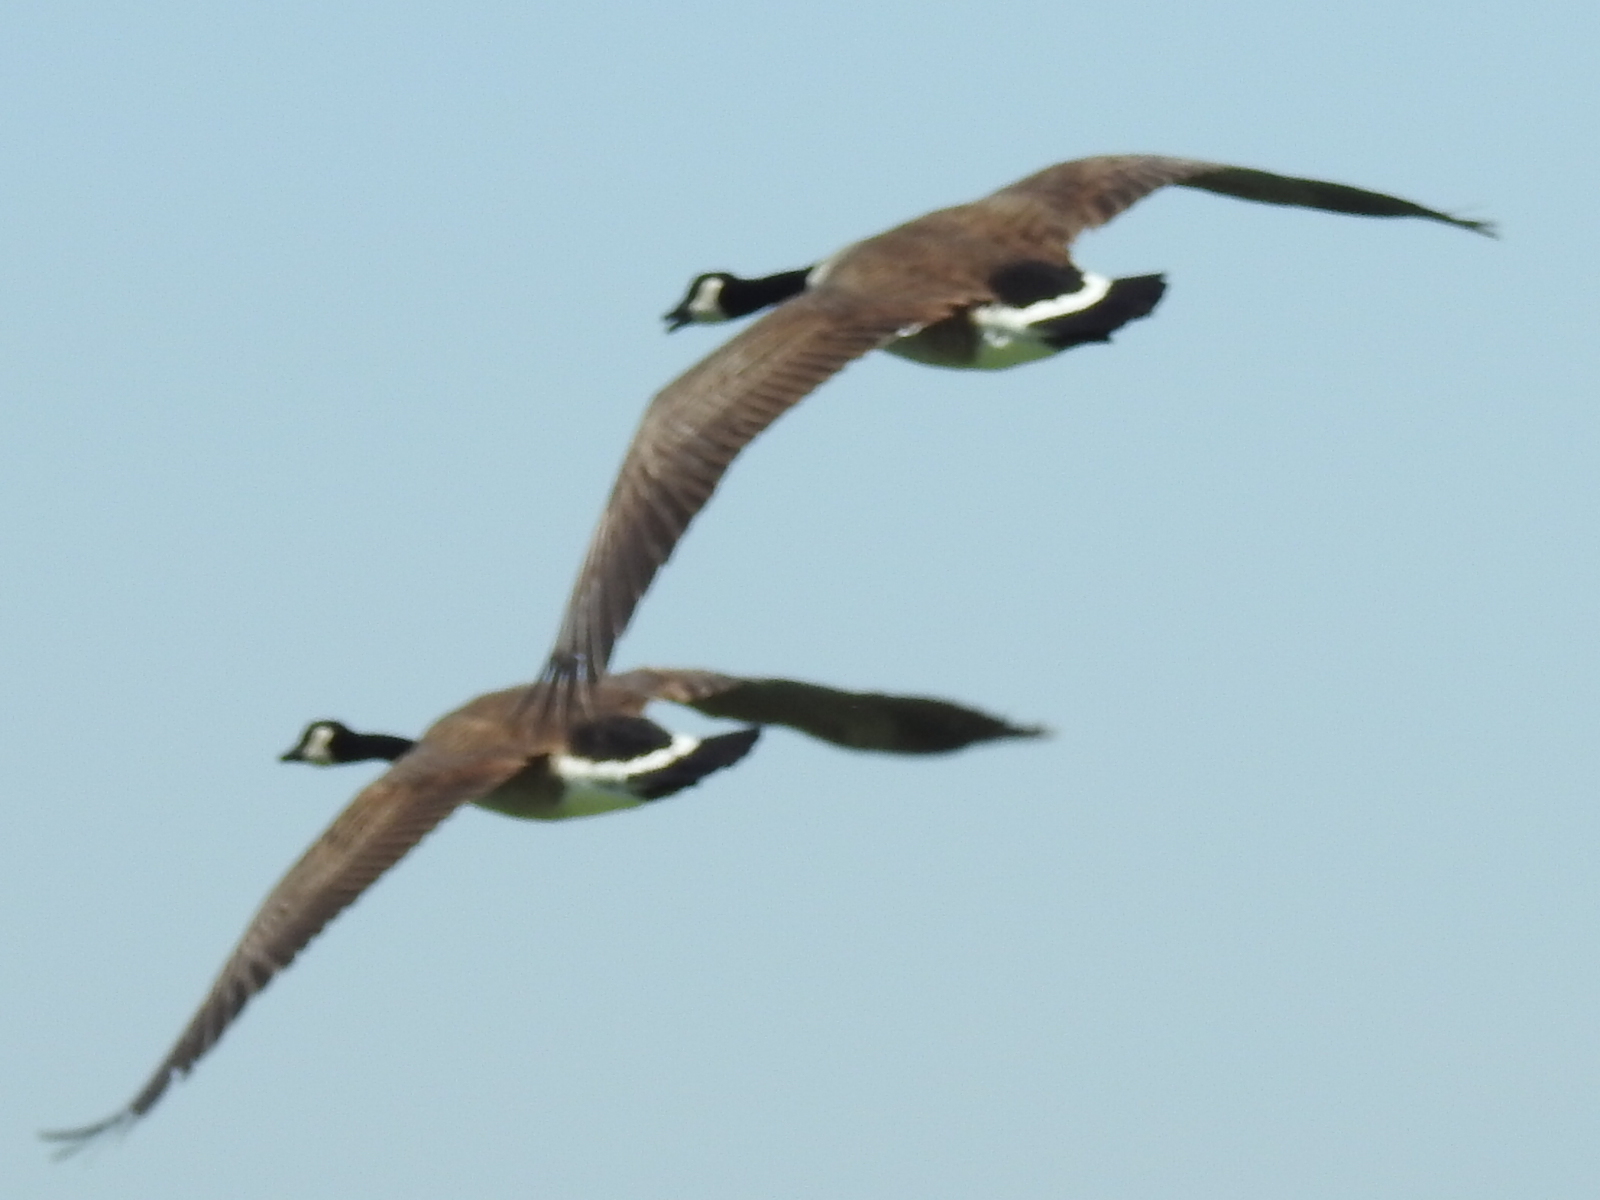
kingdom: Animalia
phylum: Chordata
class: Aves
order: Anseriformes
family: Anatidae
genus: Branta
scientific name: Branta canadensis
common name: Canada goose
